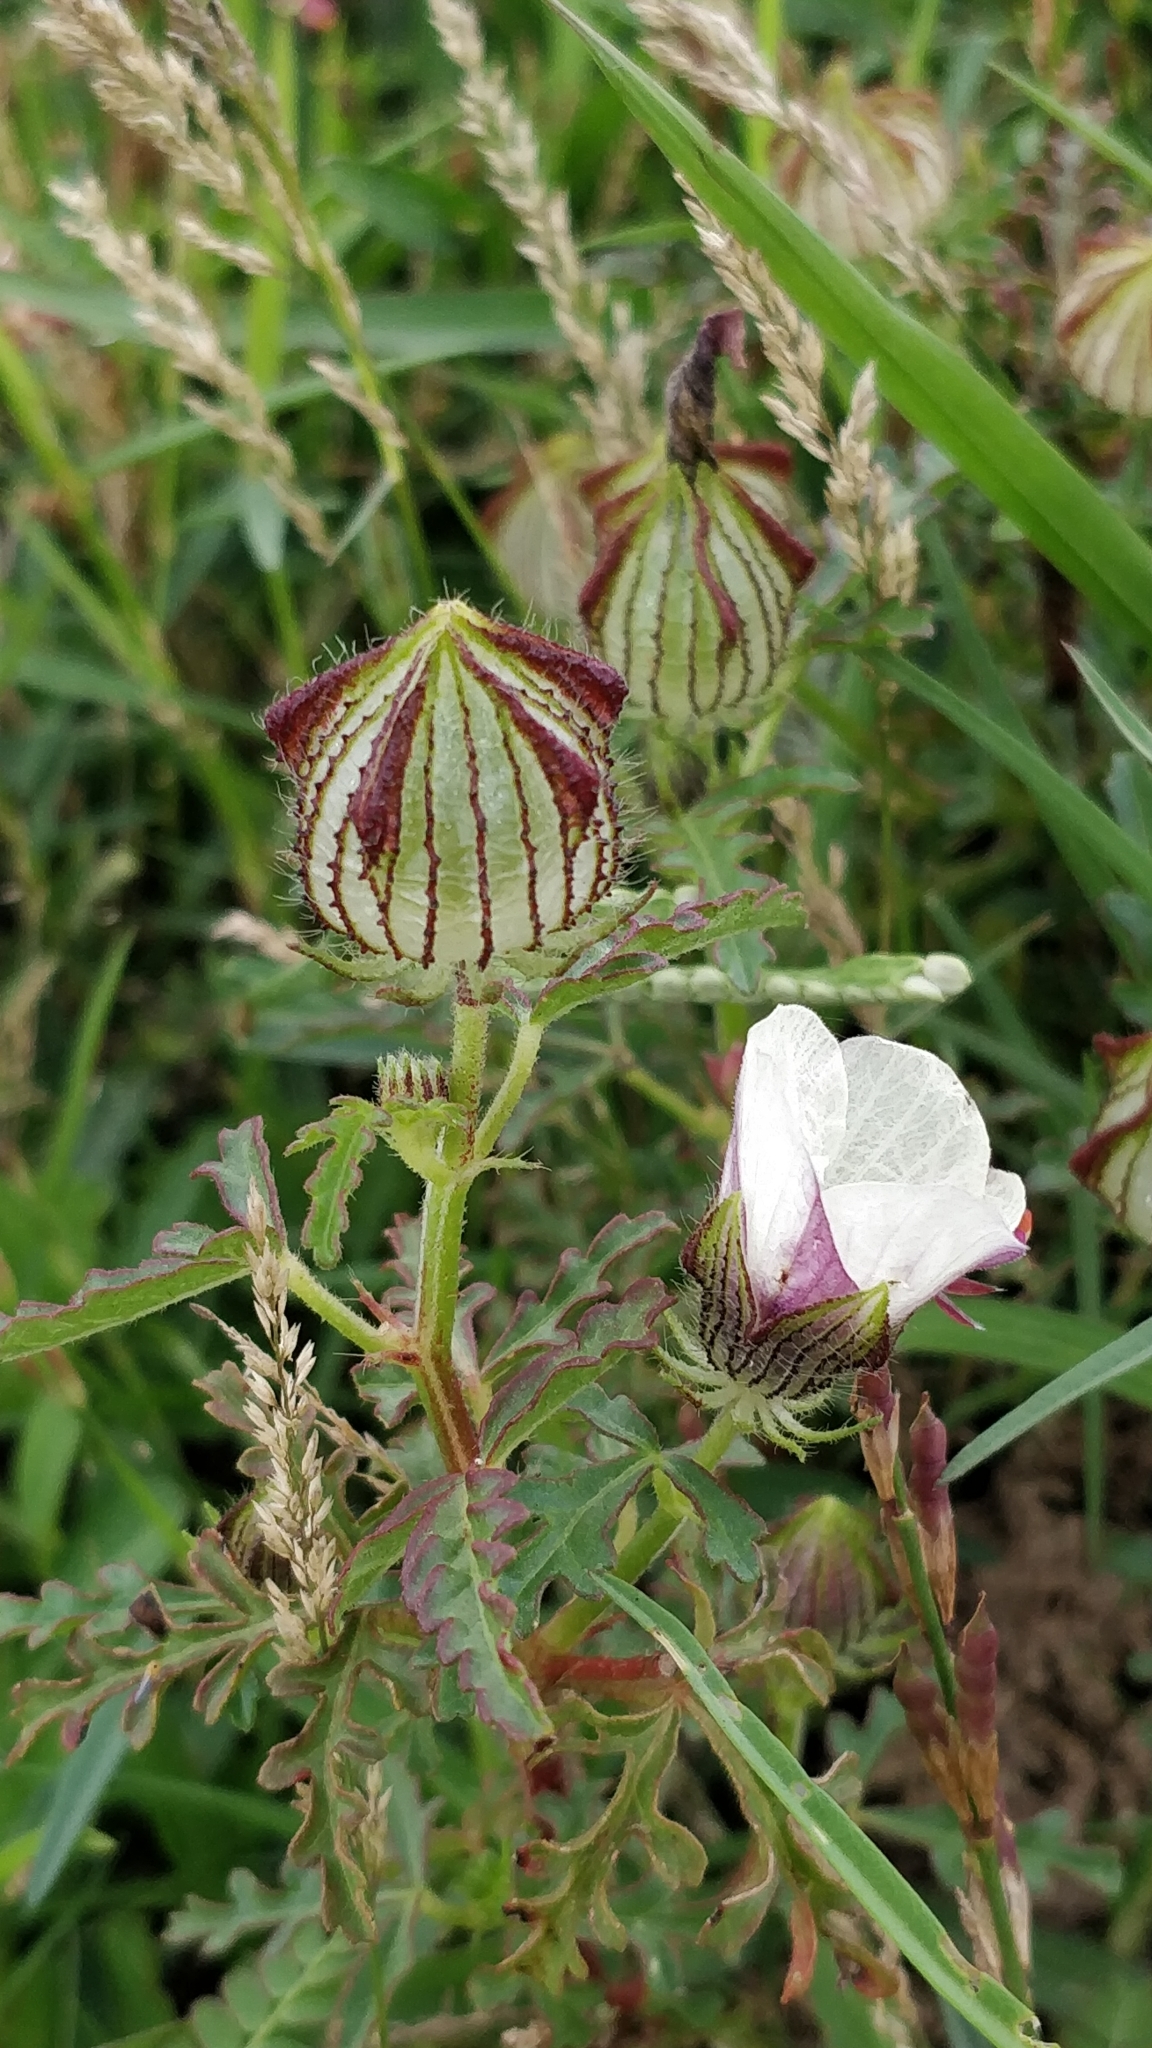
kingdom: Plantae
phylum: Tracheophyta
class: Magnoliopsida
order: Malvales
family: Malvaceae
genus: Hibiscus
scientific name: Hibiscus trionum
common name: Bladder ketmia
